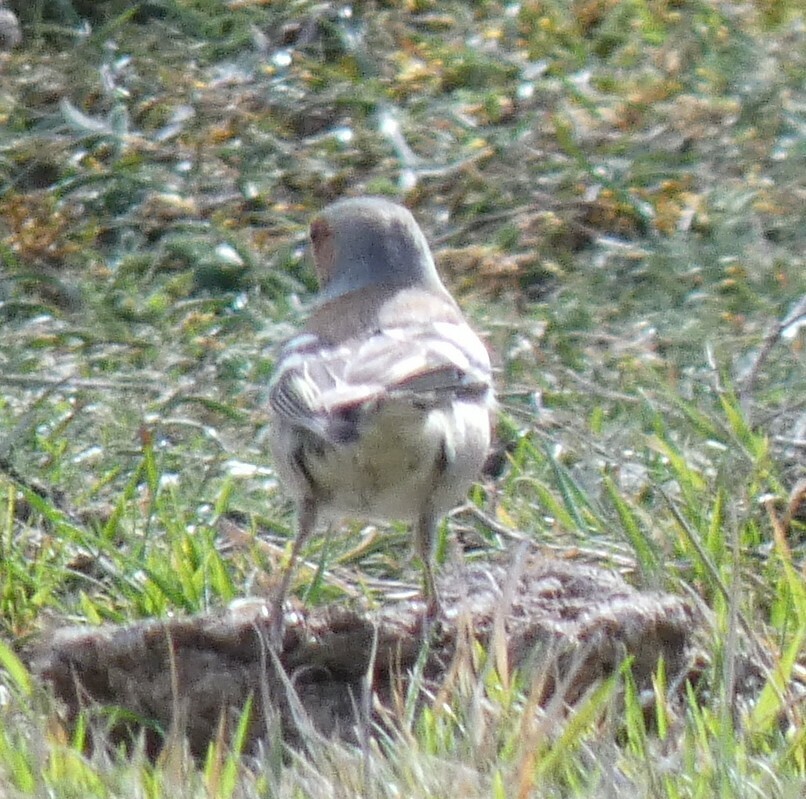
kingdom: Animalia
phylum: Chordata
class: Aves
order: Passeriformes
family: Fringillidae
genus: Fringilla
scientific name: Fringilla coelebs
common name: Common chaffinch
